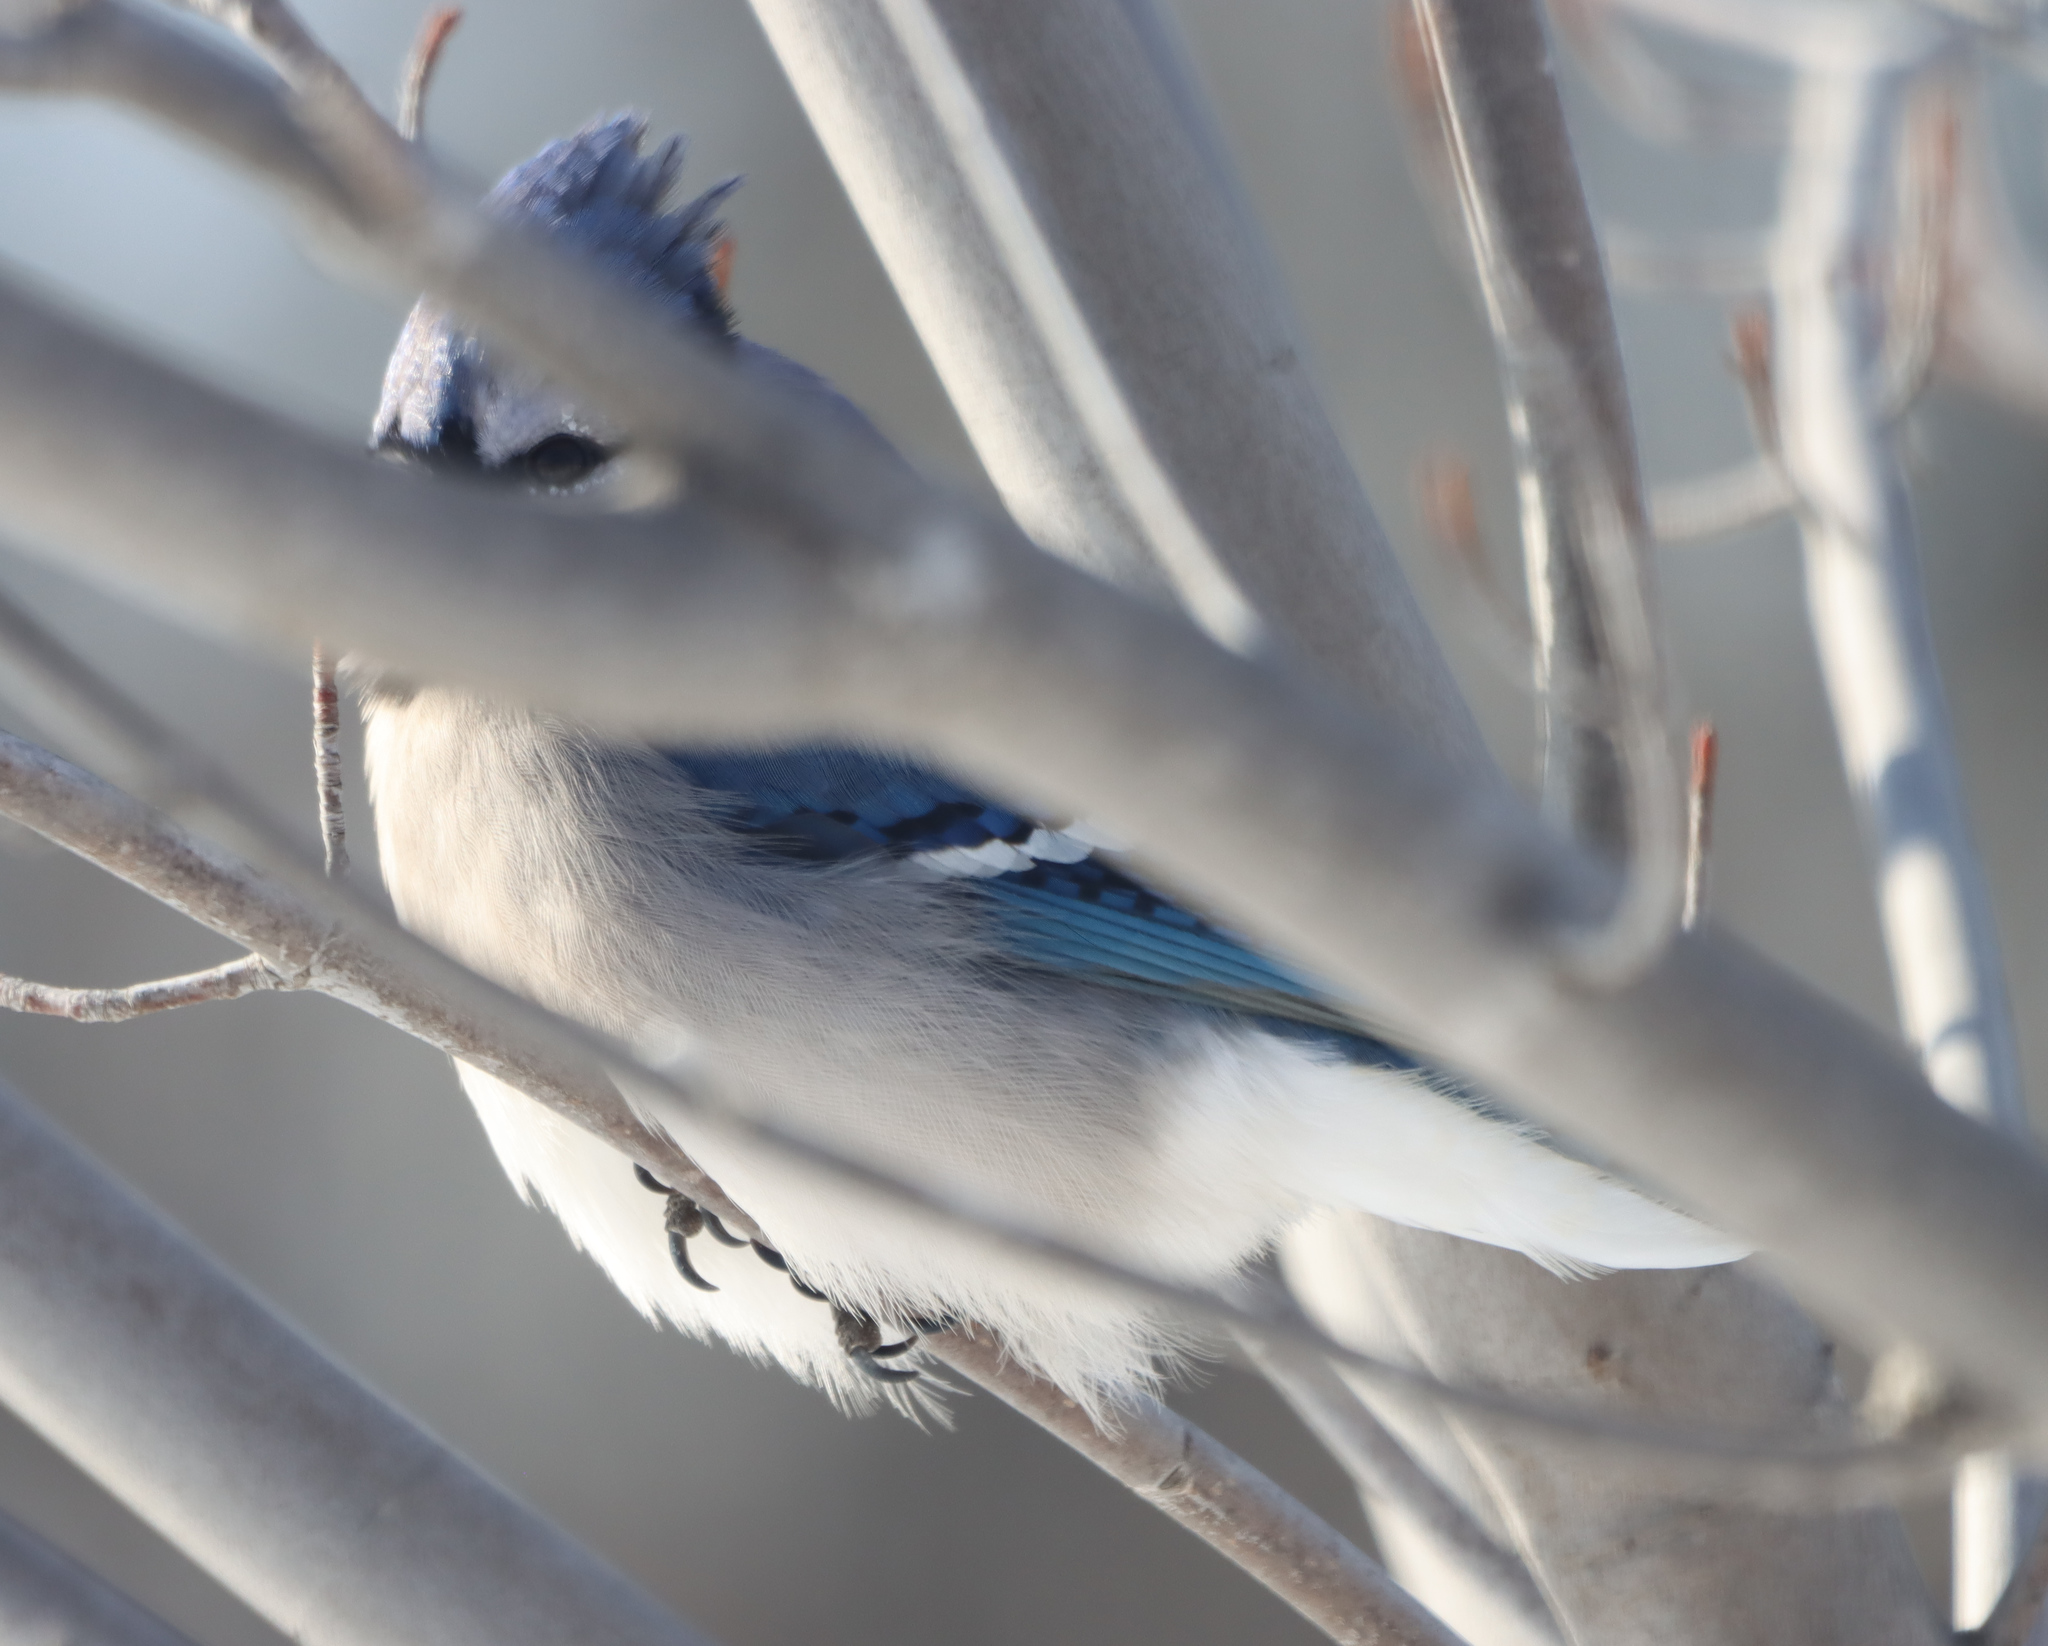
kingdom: Animalia
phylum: Chordata
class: Aves
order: Passeriformes
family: Corvidae
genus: Cyanocitta
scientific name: Cyanocitta cristata
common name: Blue jay
